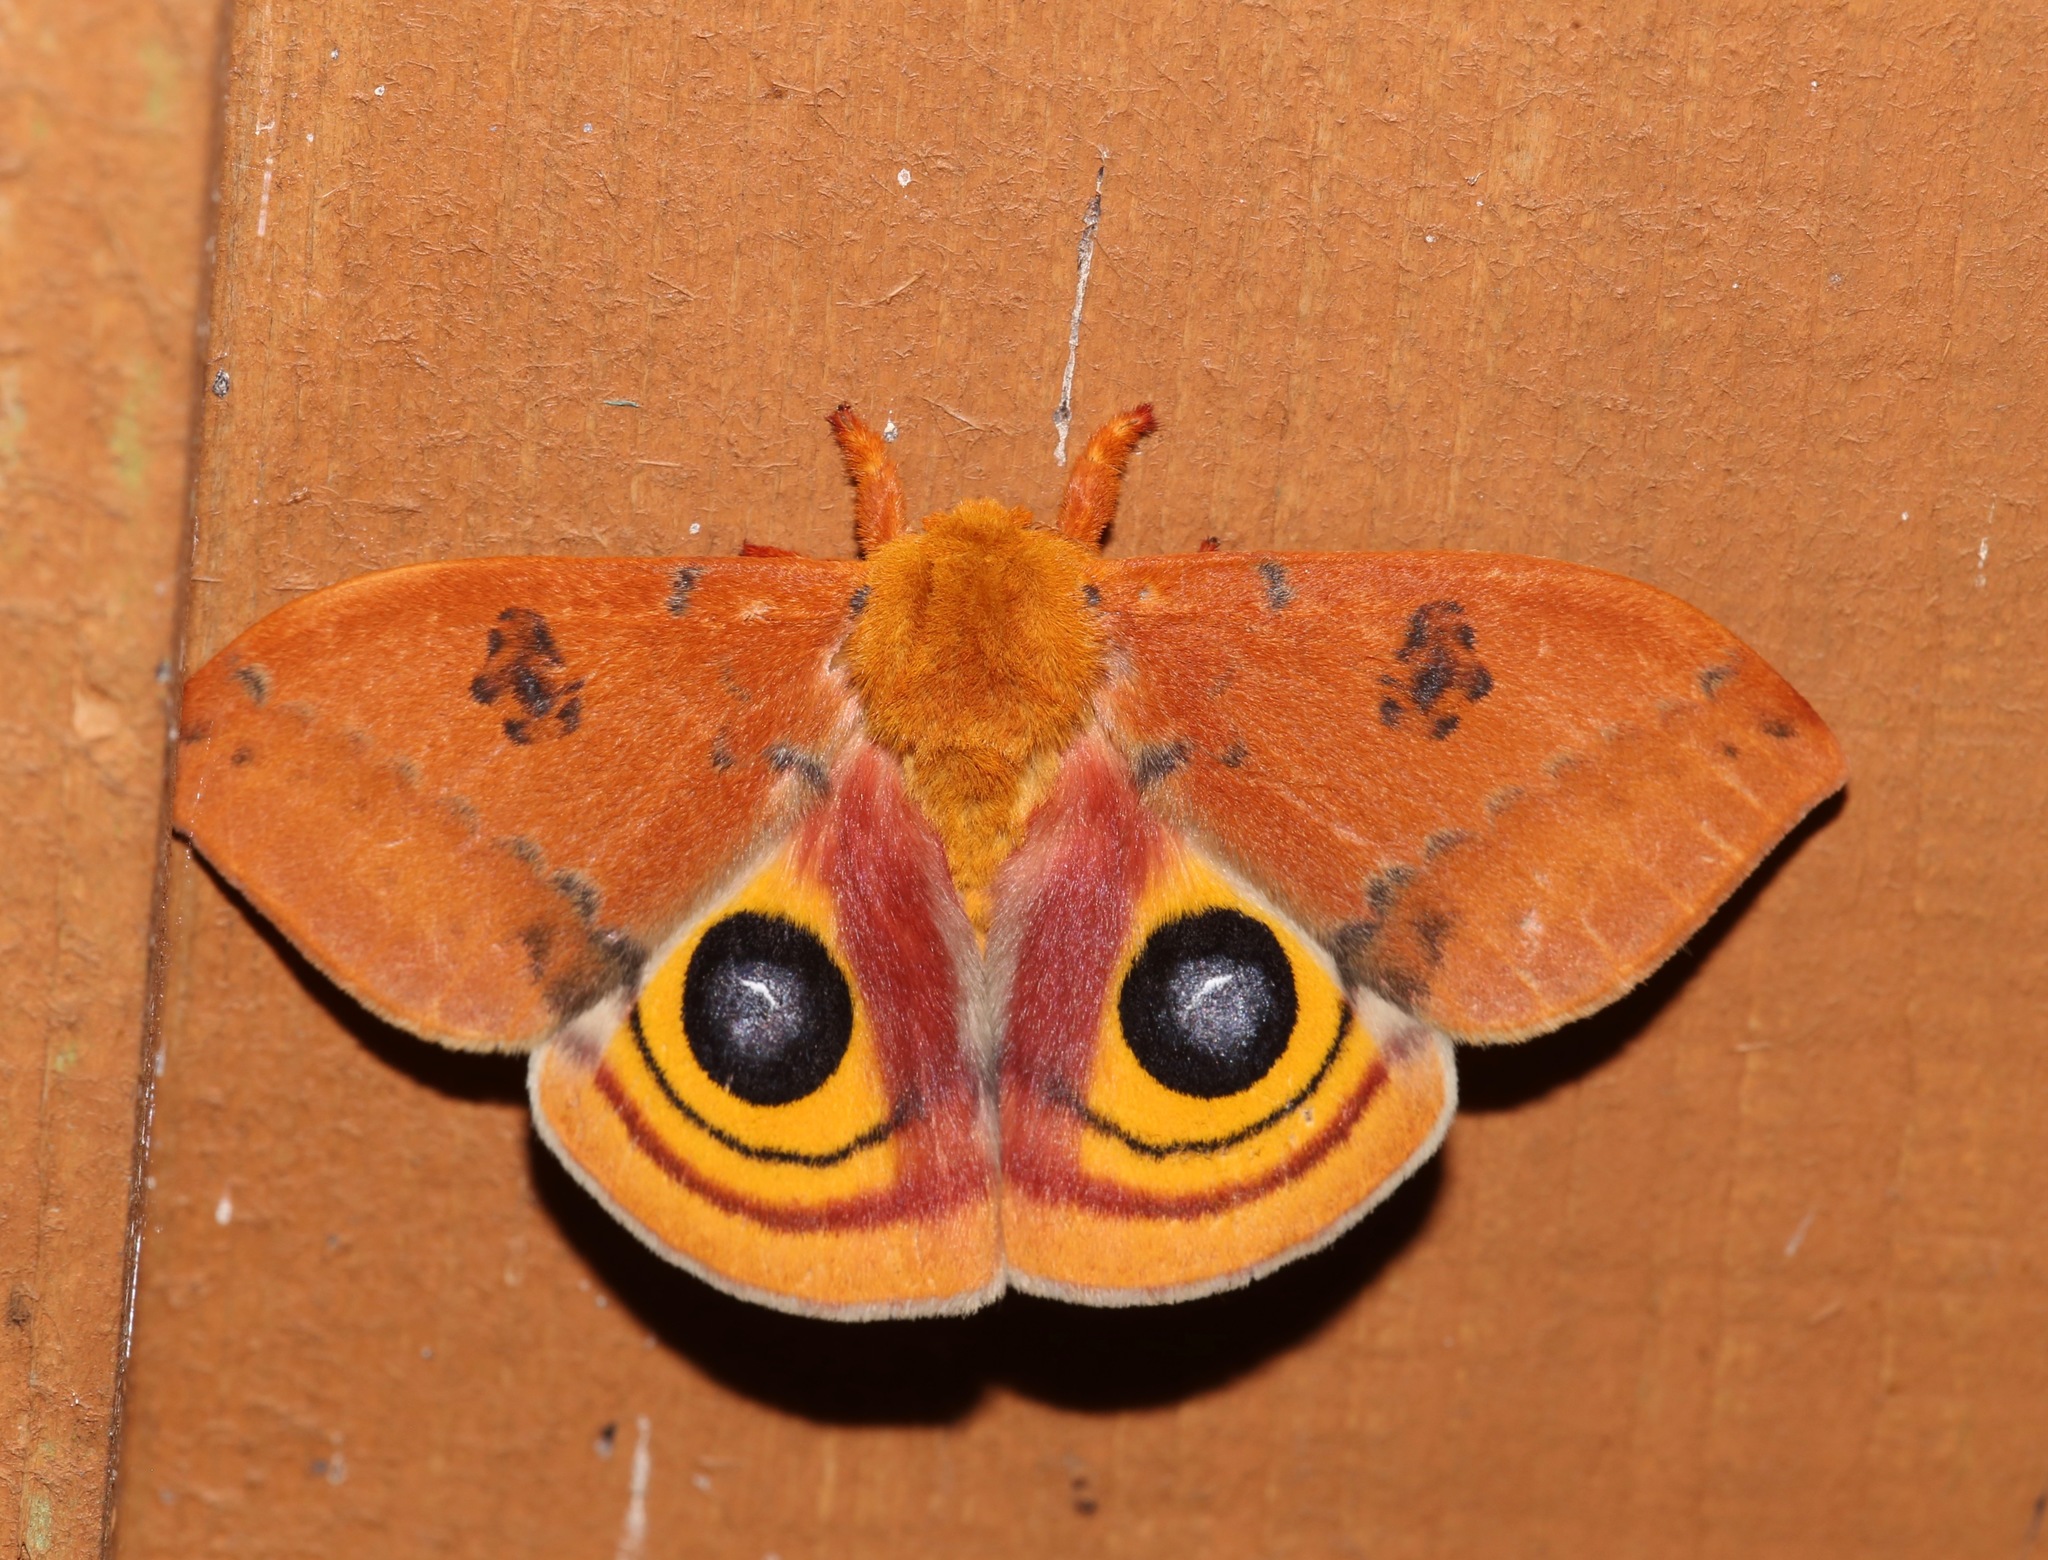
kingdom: Animalia
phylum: Arthropoda
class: Insecta
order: Lepidoptera
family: Saturniidae
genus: Automeris
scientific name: Automeris io
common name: Io moth
